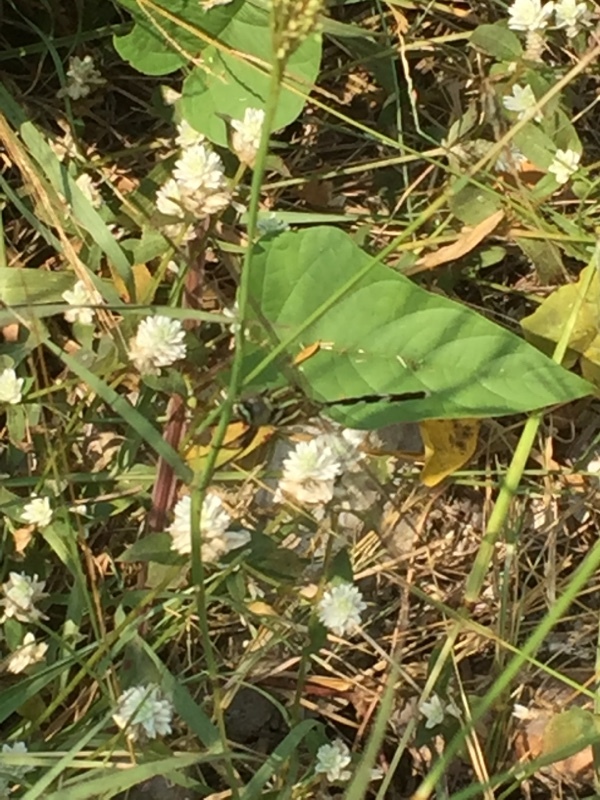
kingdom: Animalia
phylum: Arthropoda
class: Insecta
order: Odonata
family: Libellulidae
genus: Orthetrum
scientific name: Orthetrum sabina
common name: Slender skimmer
